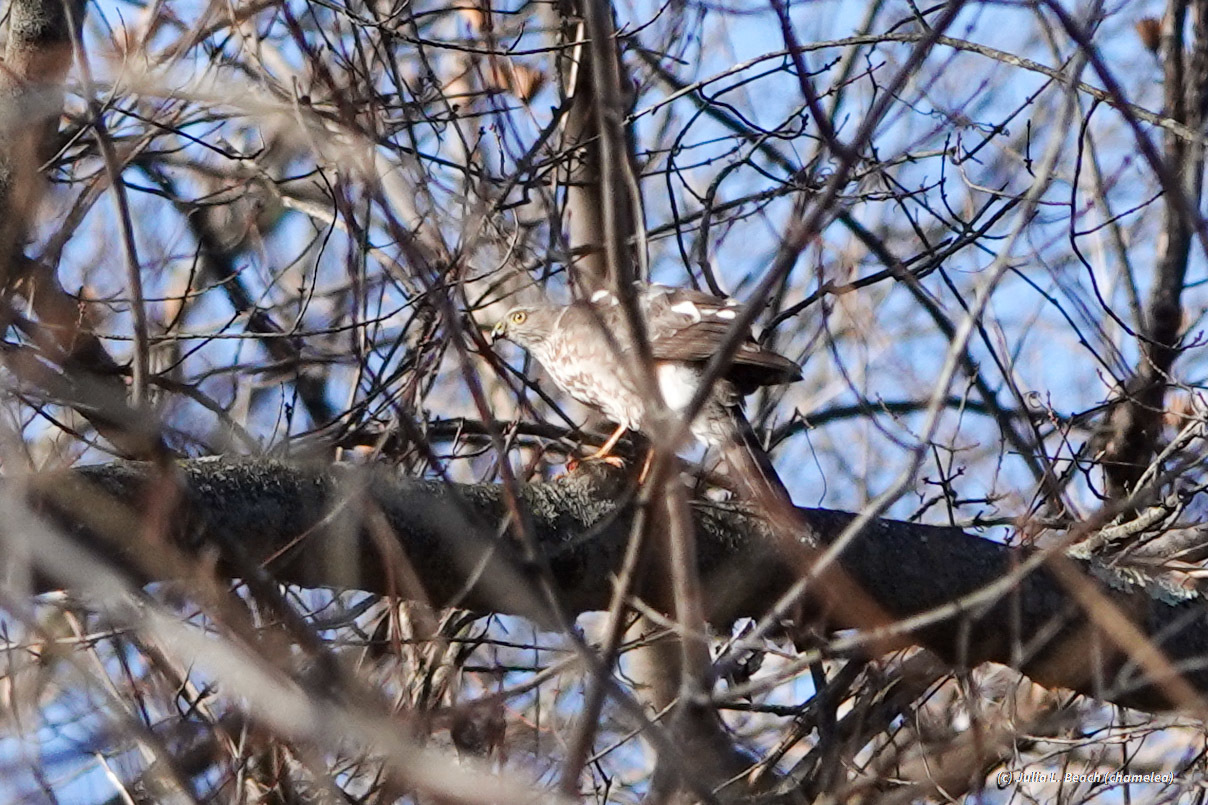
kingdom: Animalia
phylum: Chordata
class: Aves
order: Accipitriformes
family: Accipitridae
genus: Accipiter
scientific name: Accipiter striatus
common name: Sharp-shinned hawk
